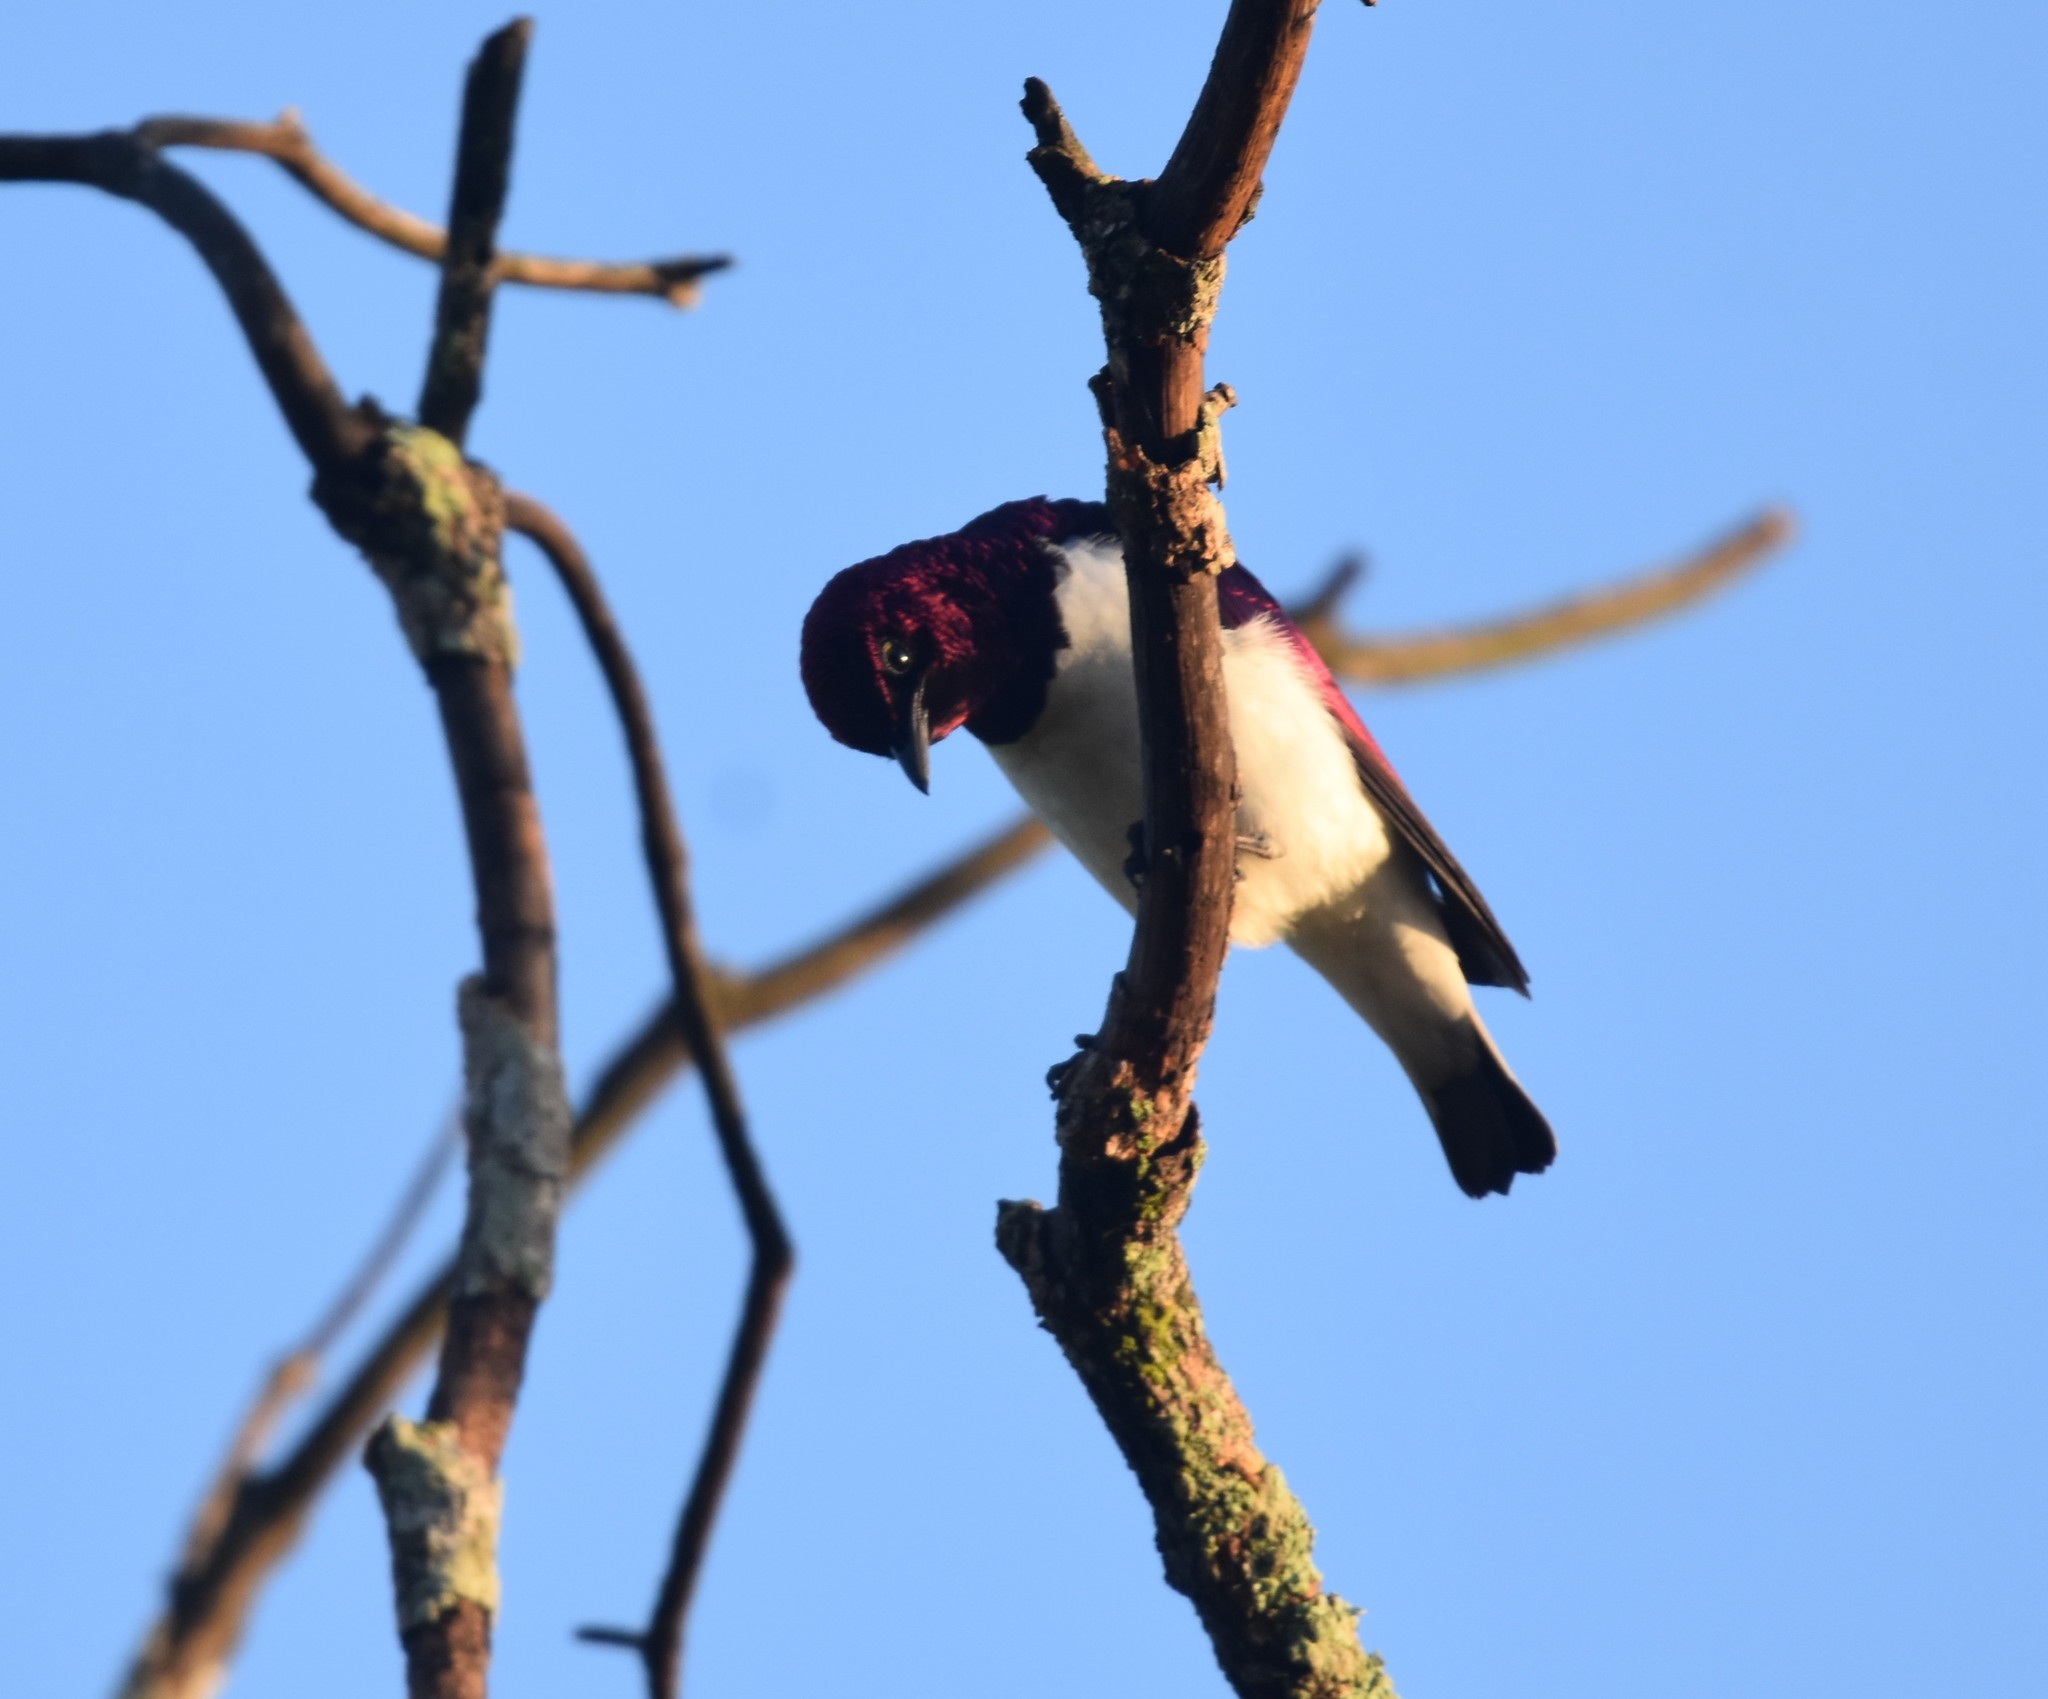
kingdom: Animalia
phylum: Chordata
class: Aves
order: Passeriformes
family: Sturnidae
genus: Cinnyricinclus
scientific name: Cinnyricinclus leucogaster
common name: Violet-backed starling
